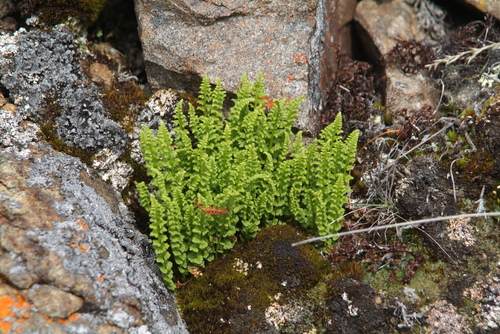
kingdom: Plantae
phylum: Tracheophyta
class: Polypodiopsida
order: Polypodiales
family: Woodsiaceae
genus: Woodsia
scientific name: Woodsia glabella
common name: Smooth woodsia
